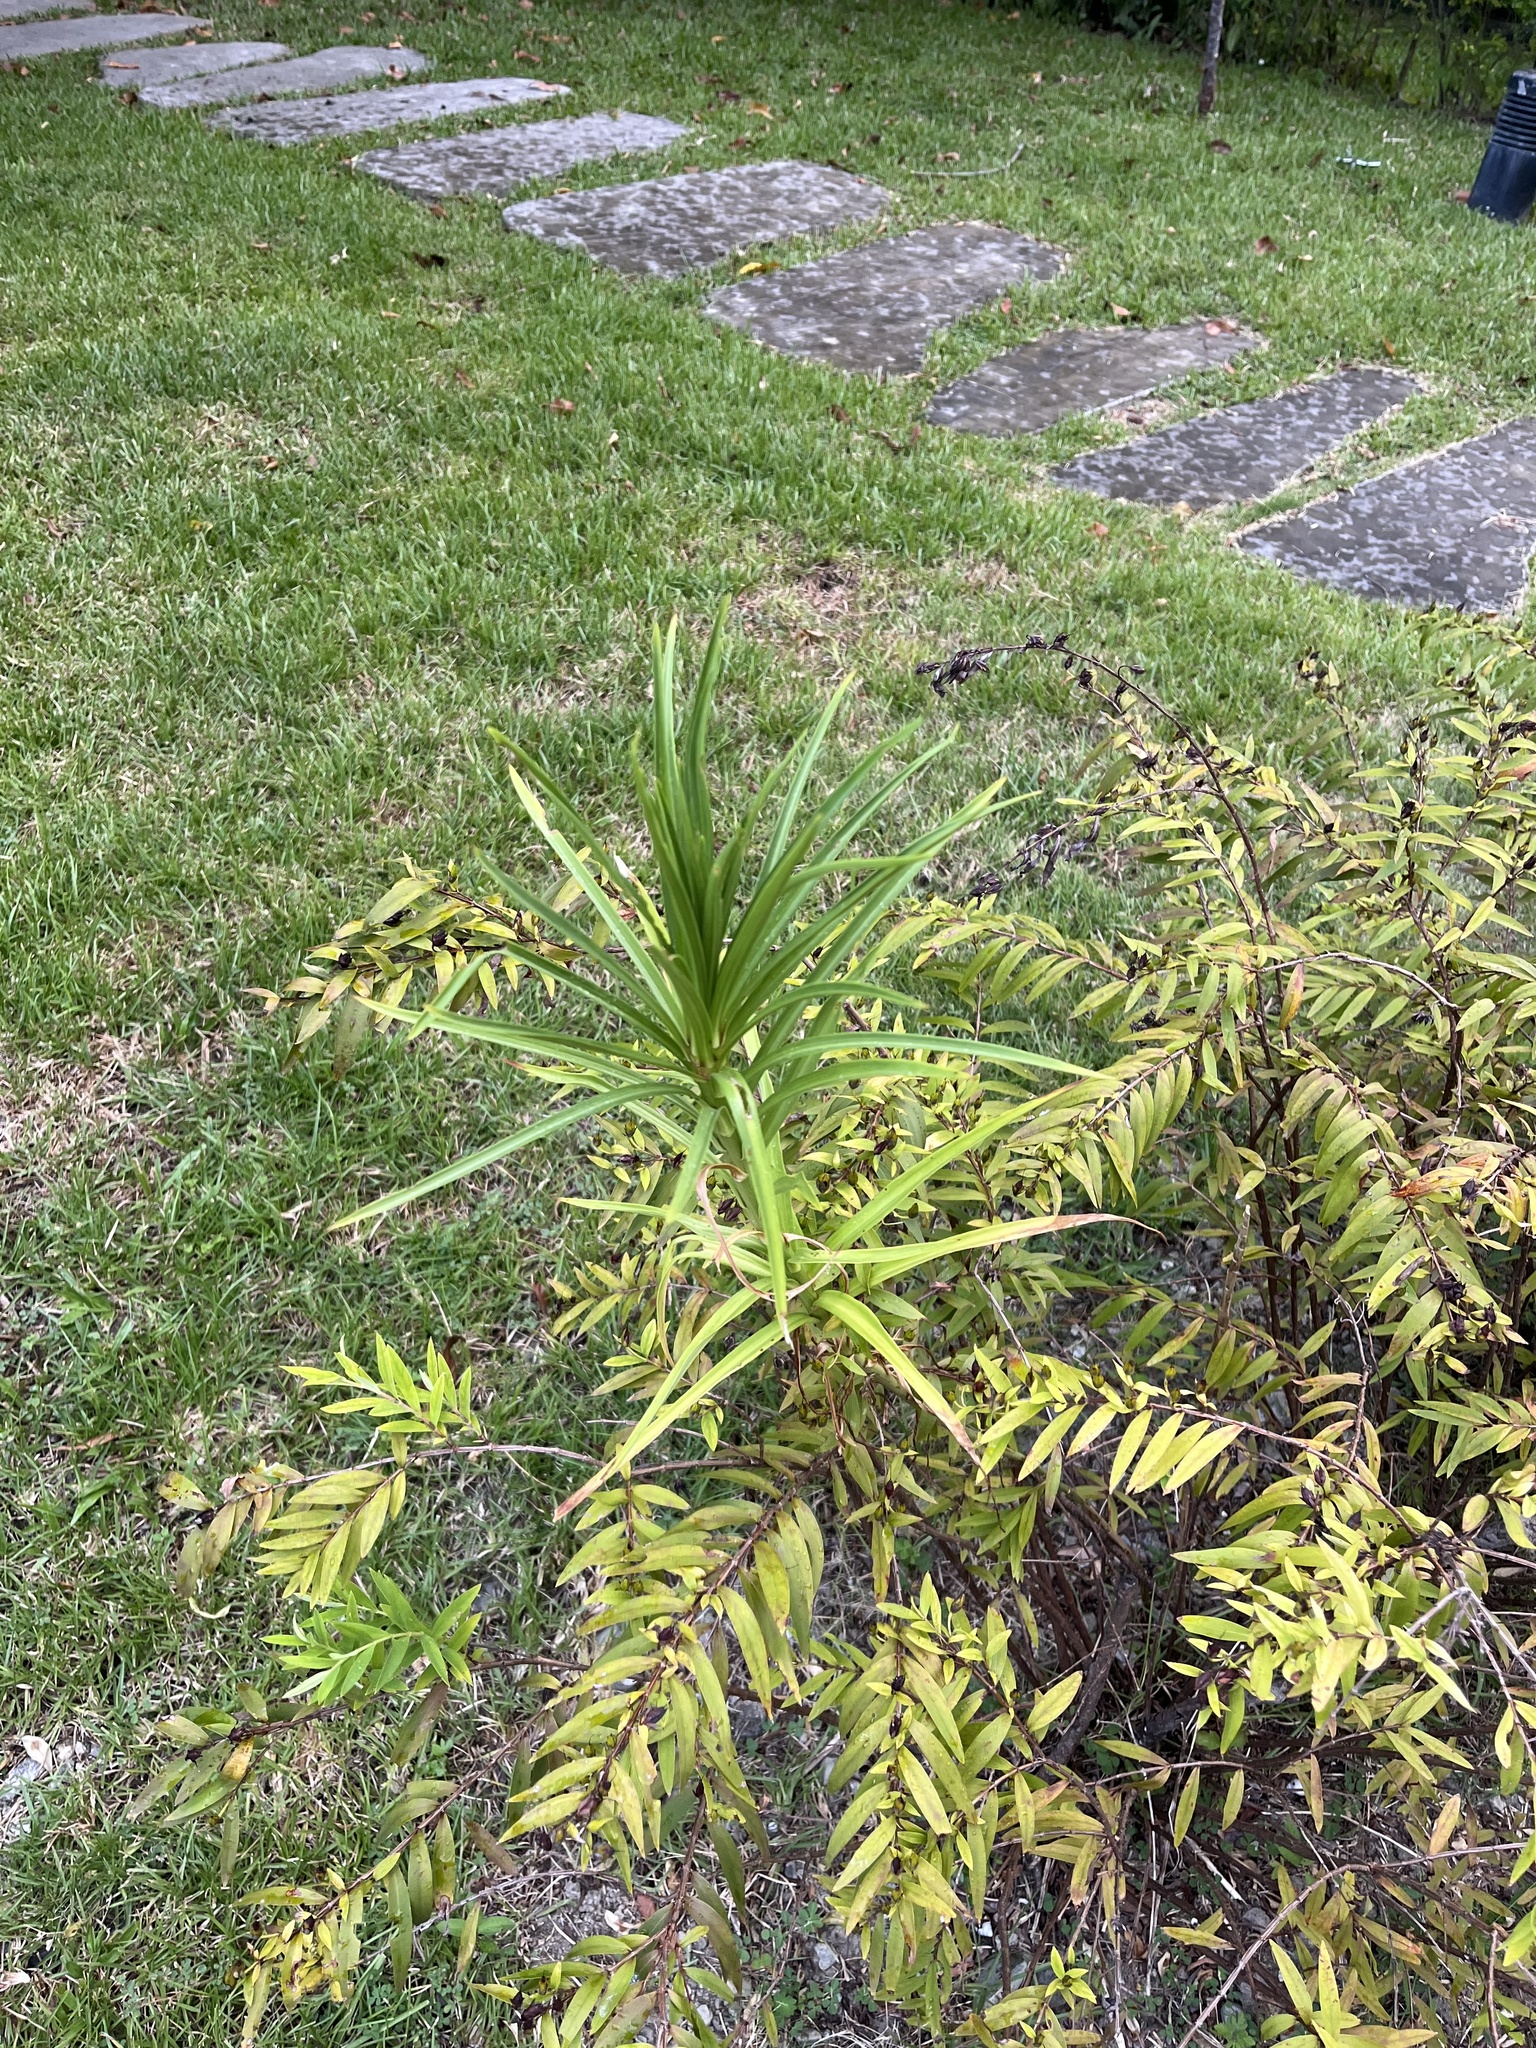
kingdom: Plantae
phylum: Tracheophyta
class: Liliopsida
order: Liliales
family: Liliaceae
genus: Lilium
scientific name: Lilium formosanum
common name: Formosa lily
